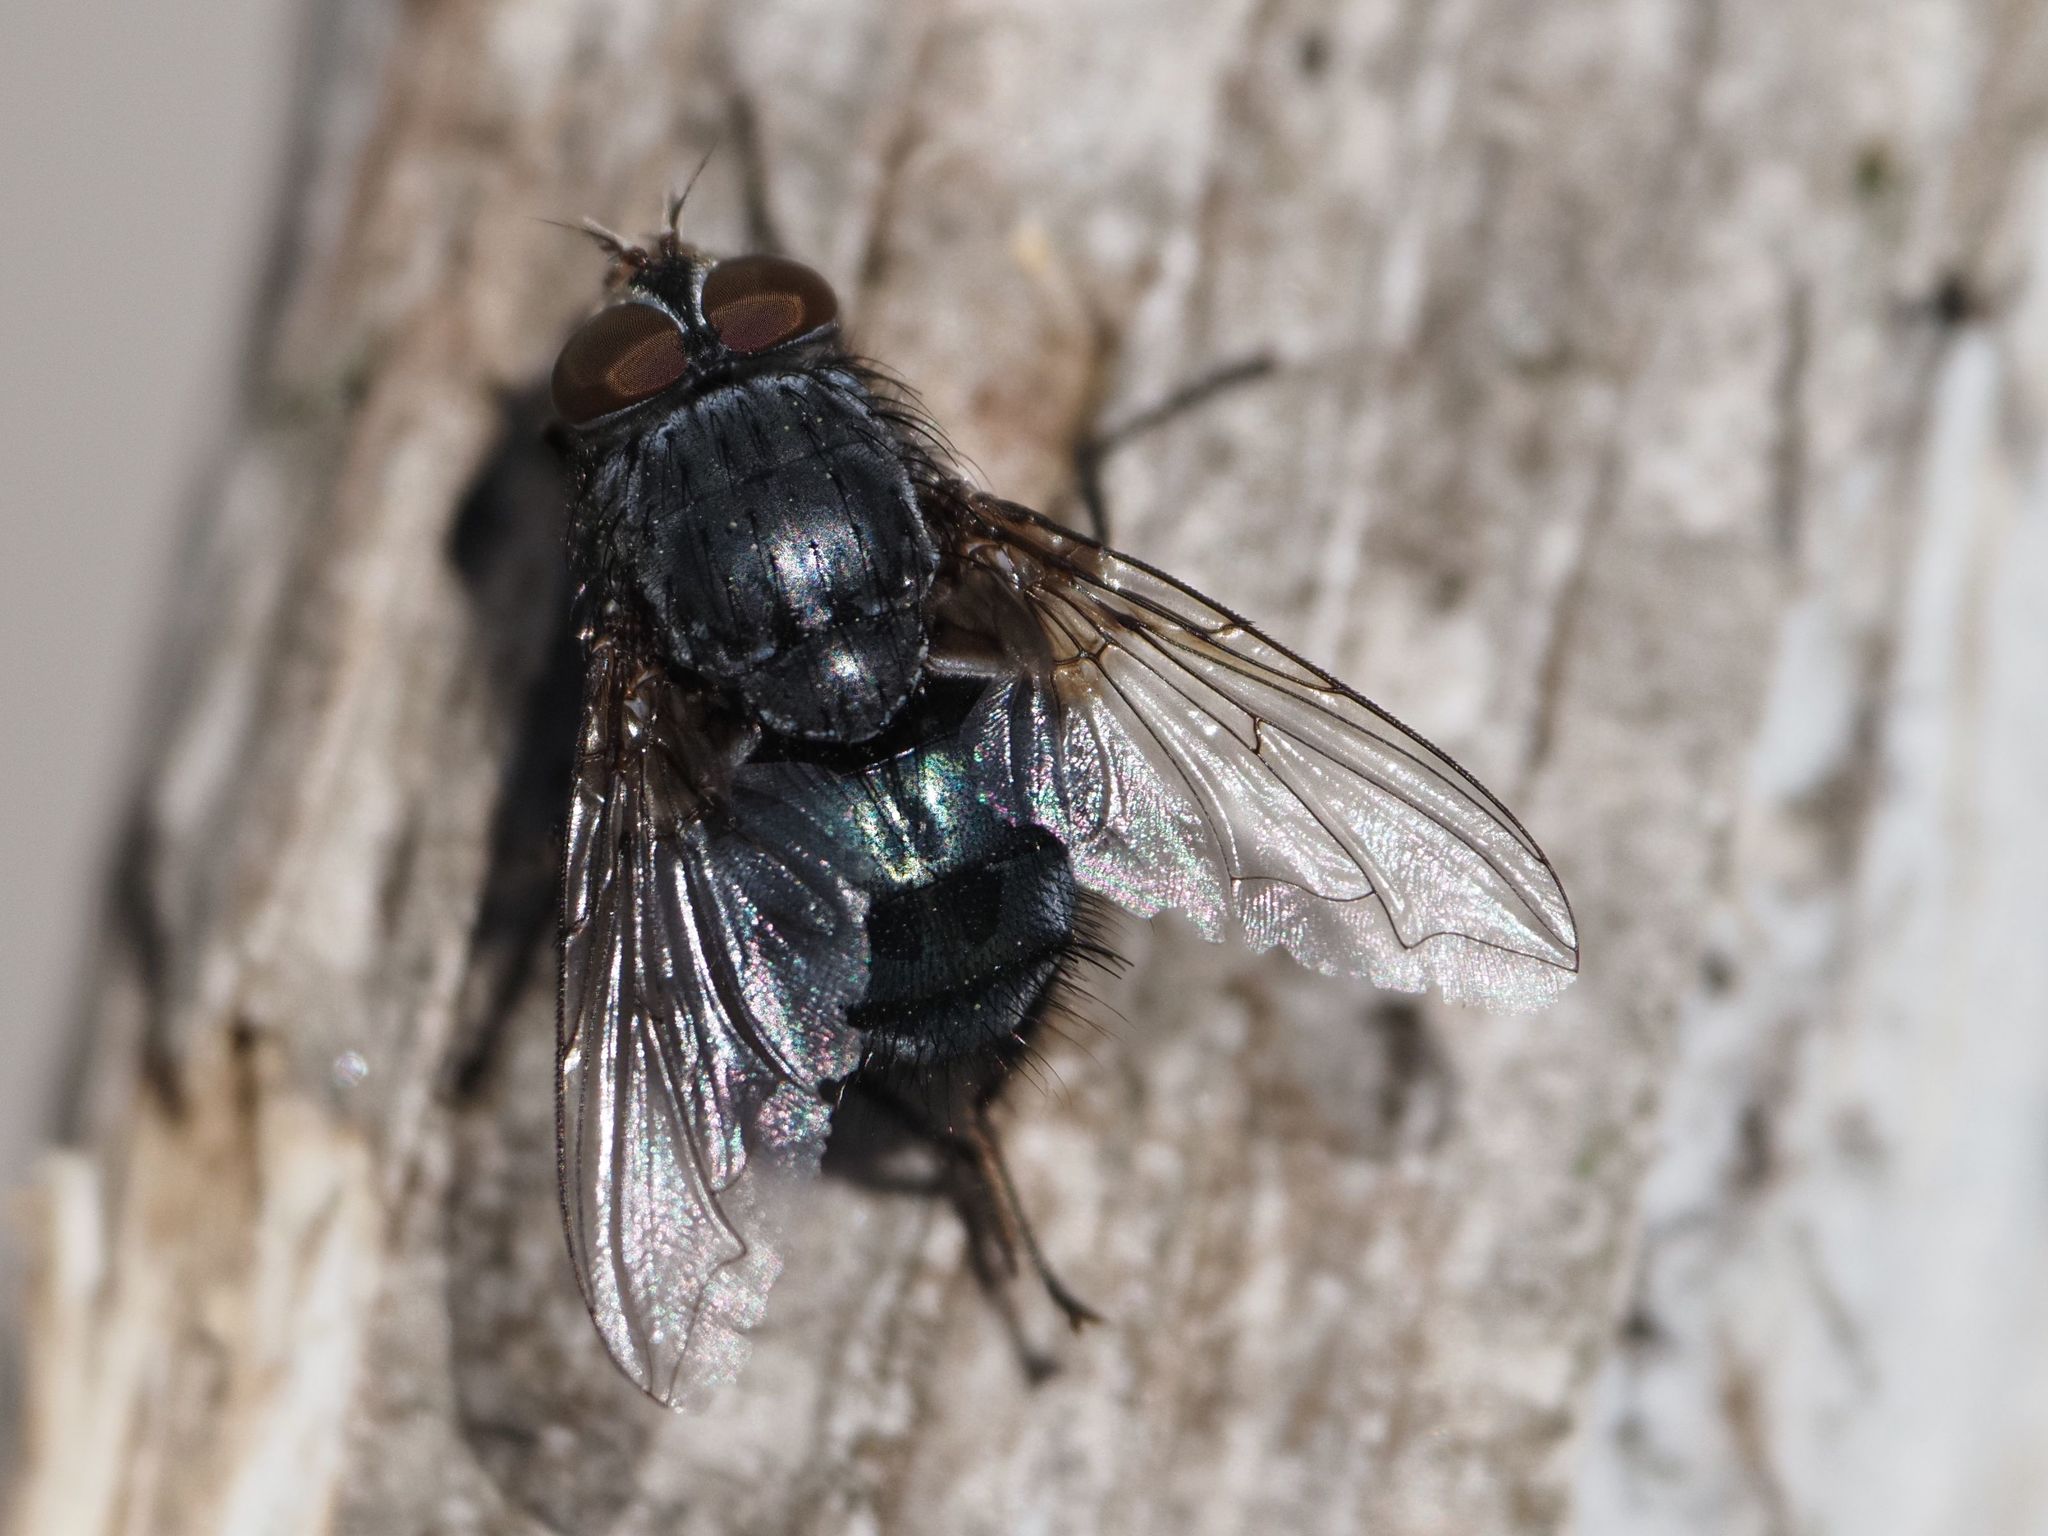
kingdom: Animalia
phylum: Arthropoda
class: Insecta
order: Diptera
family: Calliphoridae
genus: Calliphora
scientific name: Calliphora vicina
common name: Common blow flie
